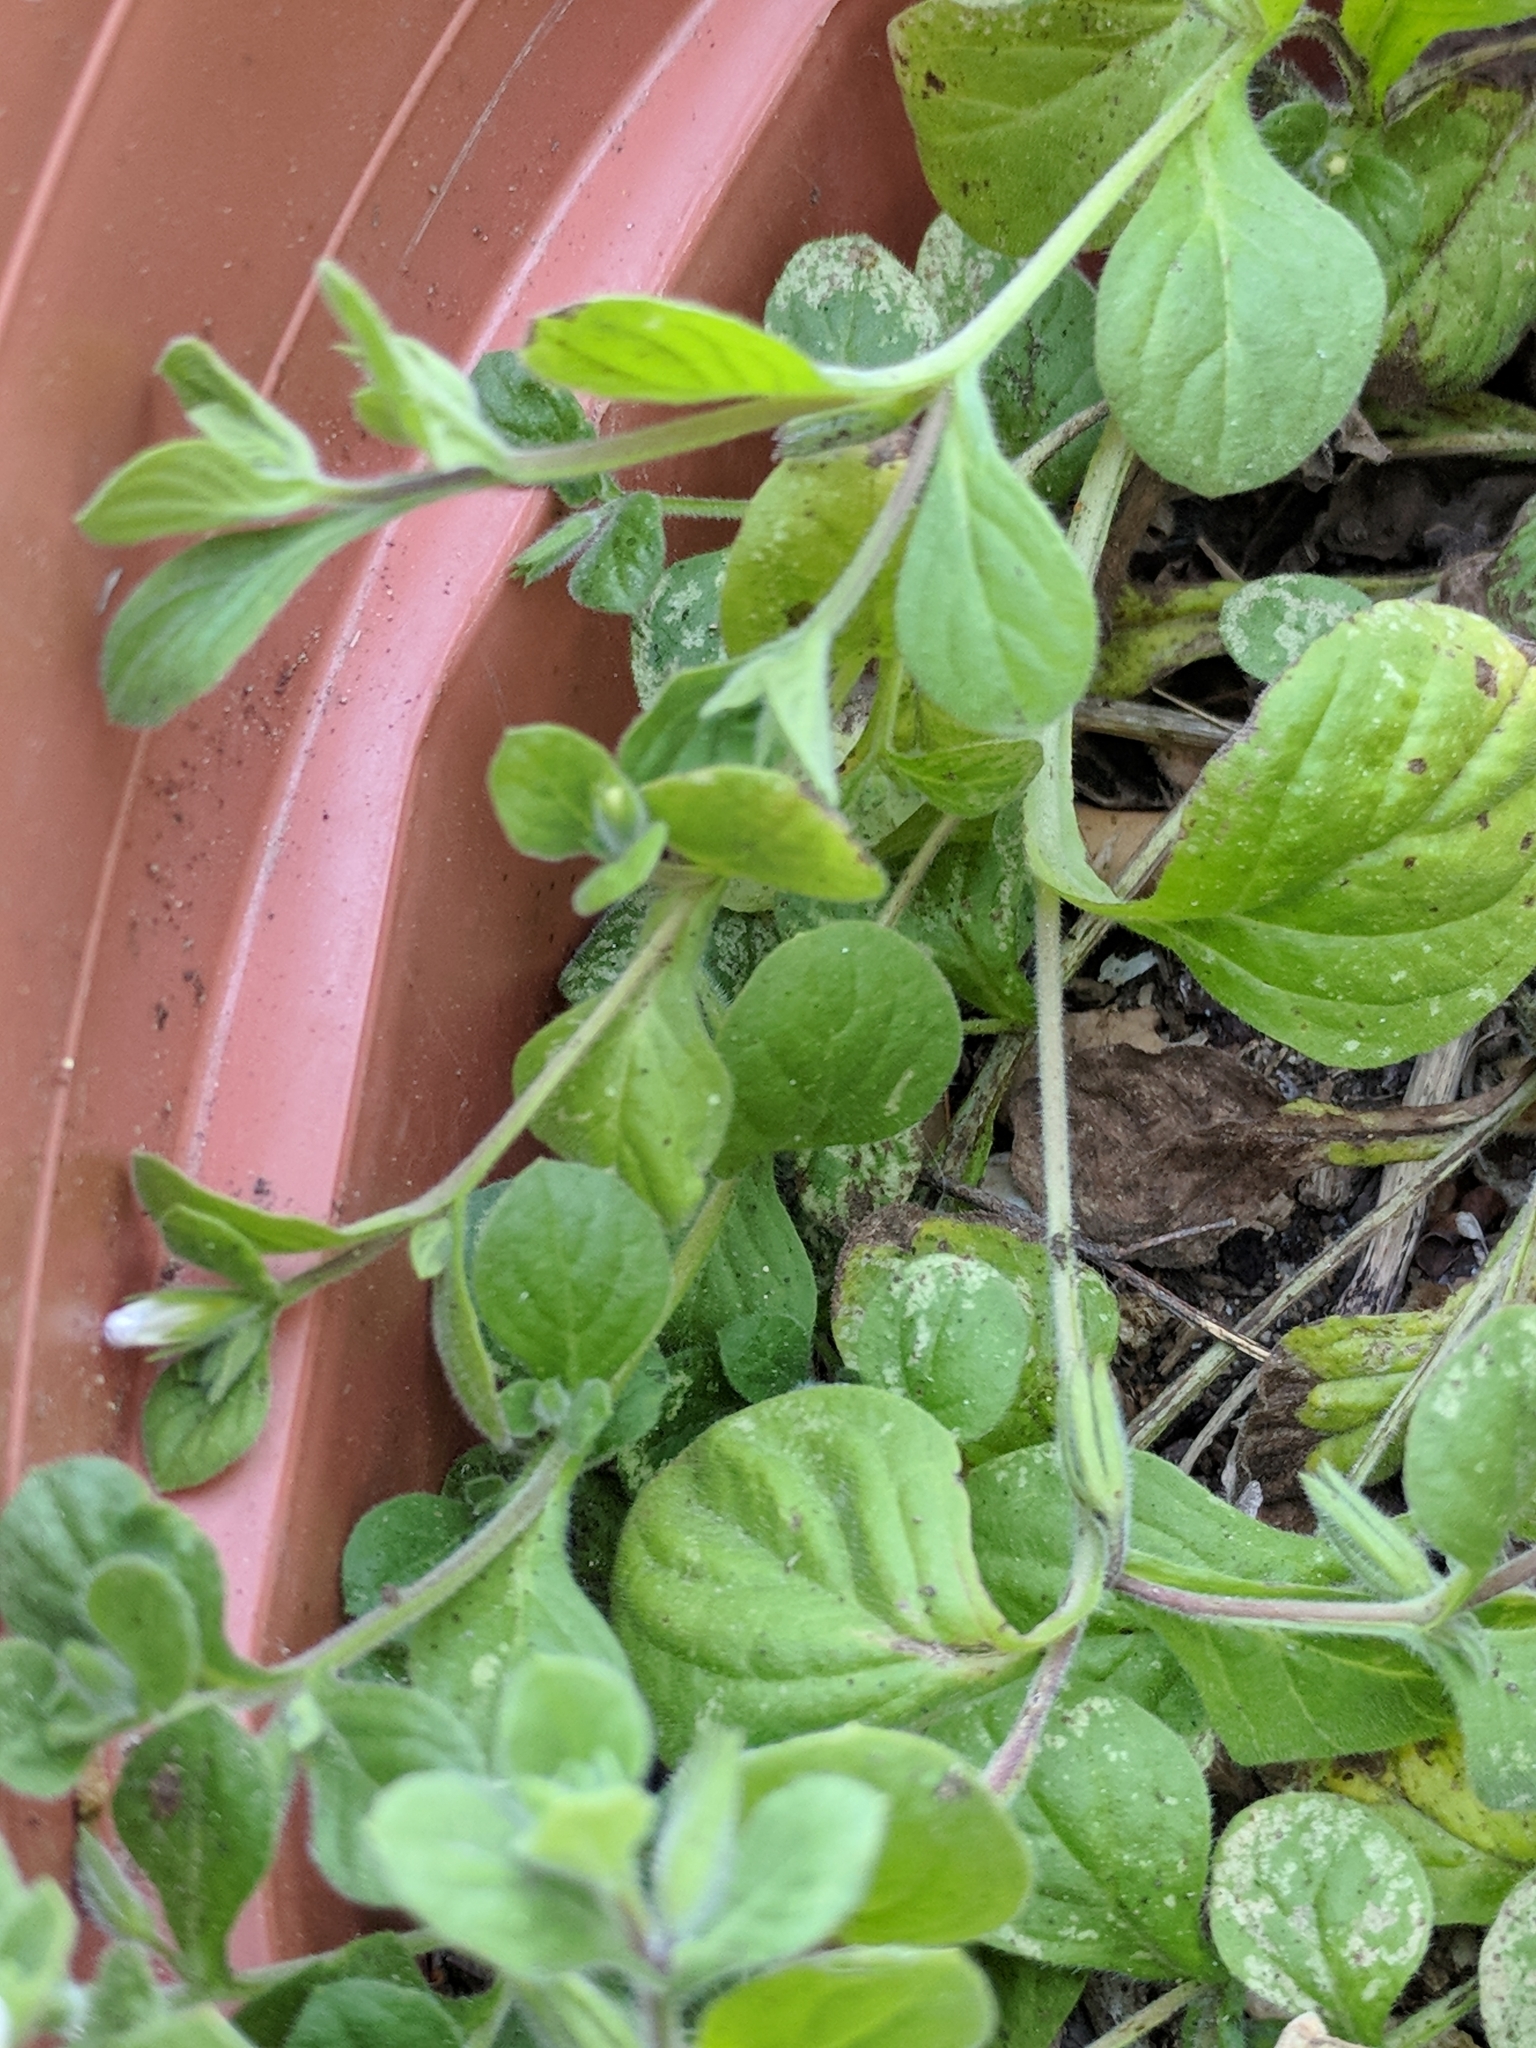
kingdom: Plantae
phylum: Tracheophyta
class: Magnoliopsida
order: Boraginales
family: Namaceae
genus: Nama
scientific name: Nama jamaicensis
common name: Jamaicanweed
